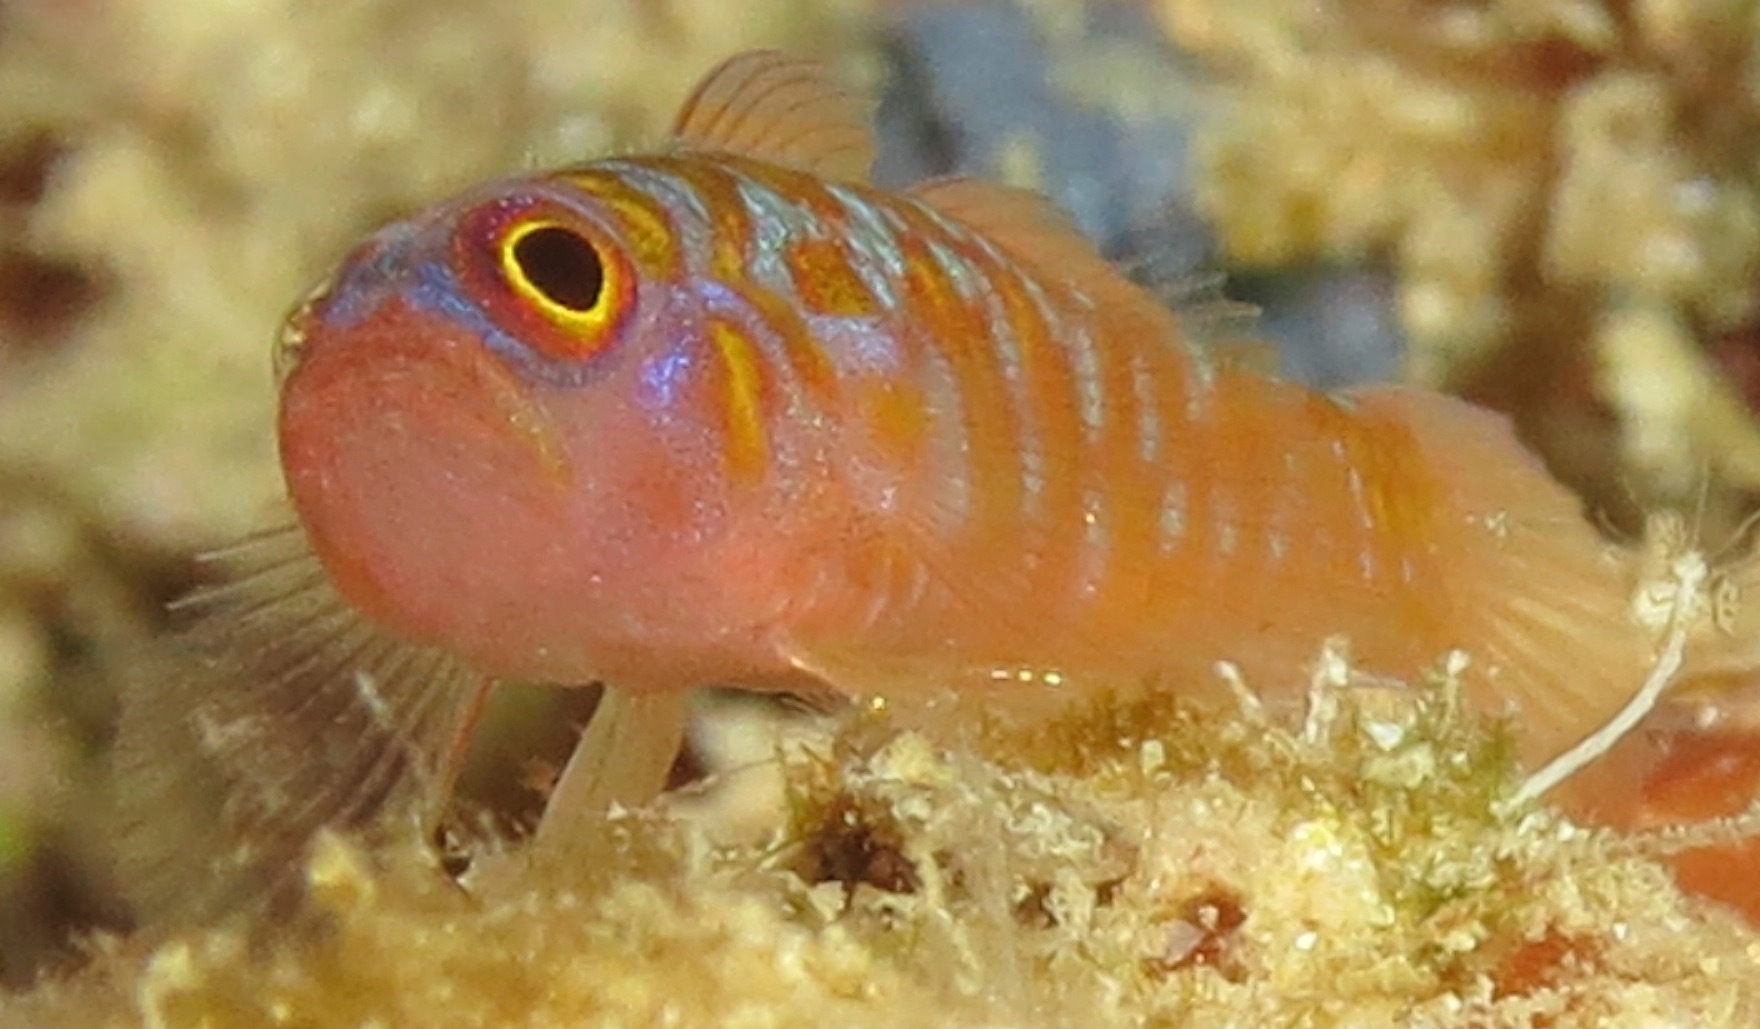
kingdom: Animalia
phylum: Chordata
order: Perciformes
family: Gobiidae
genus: Trimma
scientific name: Trimma maiandros
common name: Meander dwarfgoby
